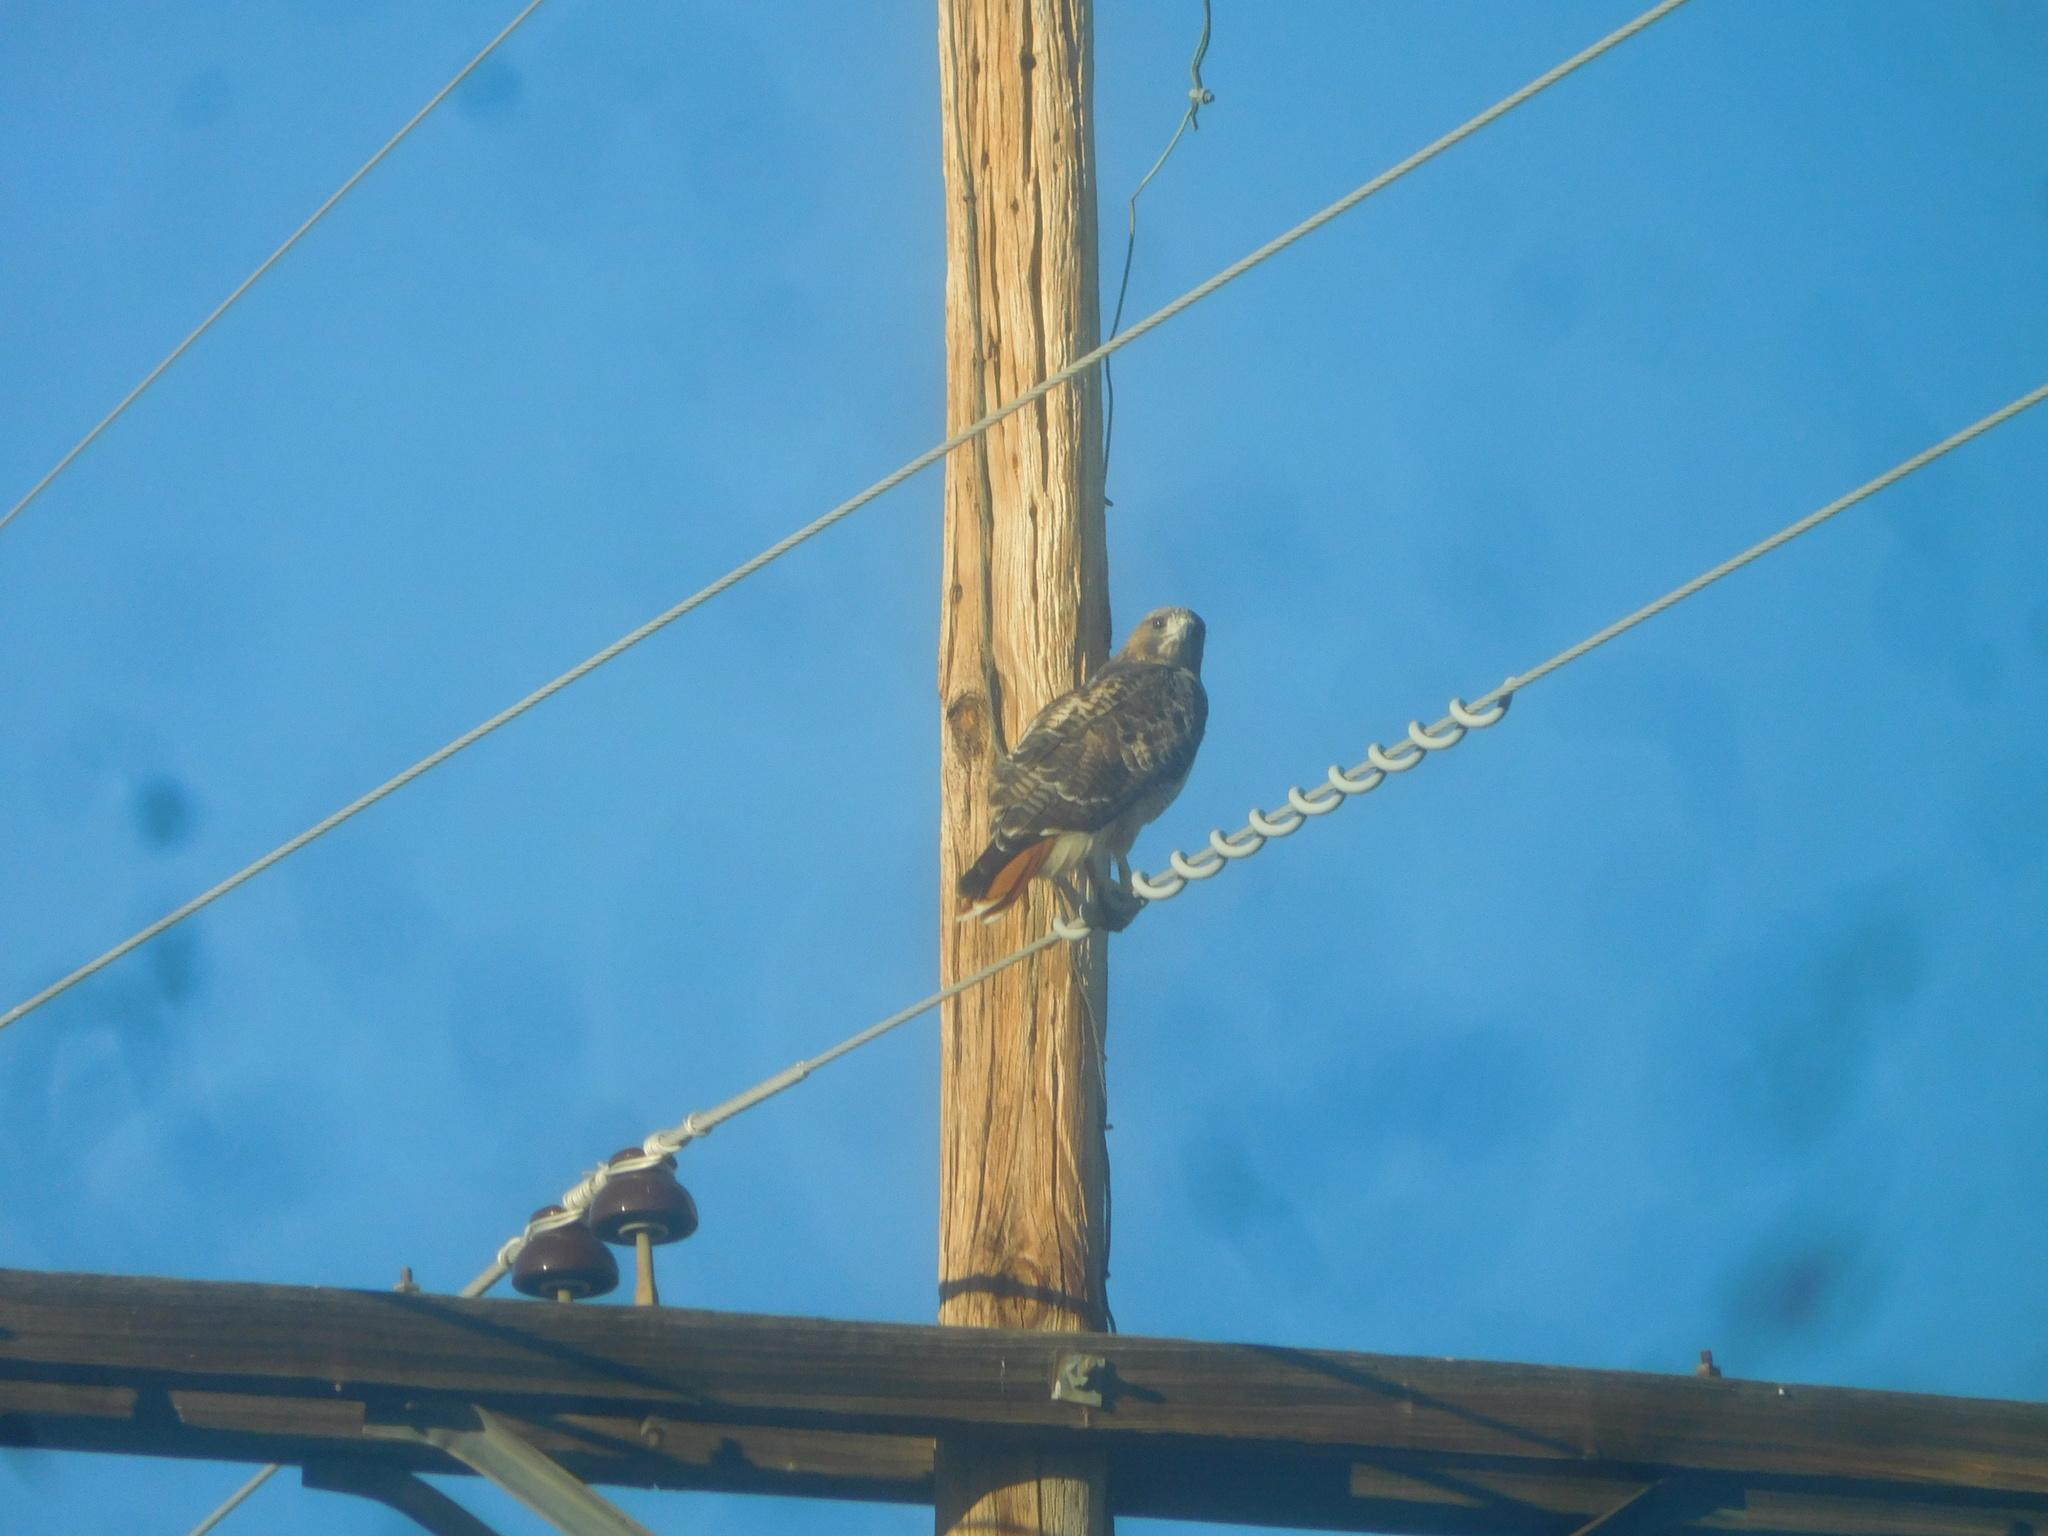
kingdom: Animalia
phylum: Chordata
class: Aves
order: Accipitriformes
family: Accipitridae
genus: Buteo
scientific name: Buteo jamaicensis
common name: Red-tailed hawk
